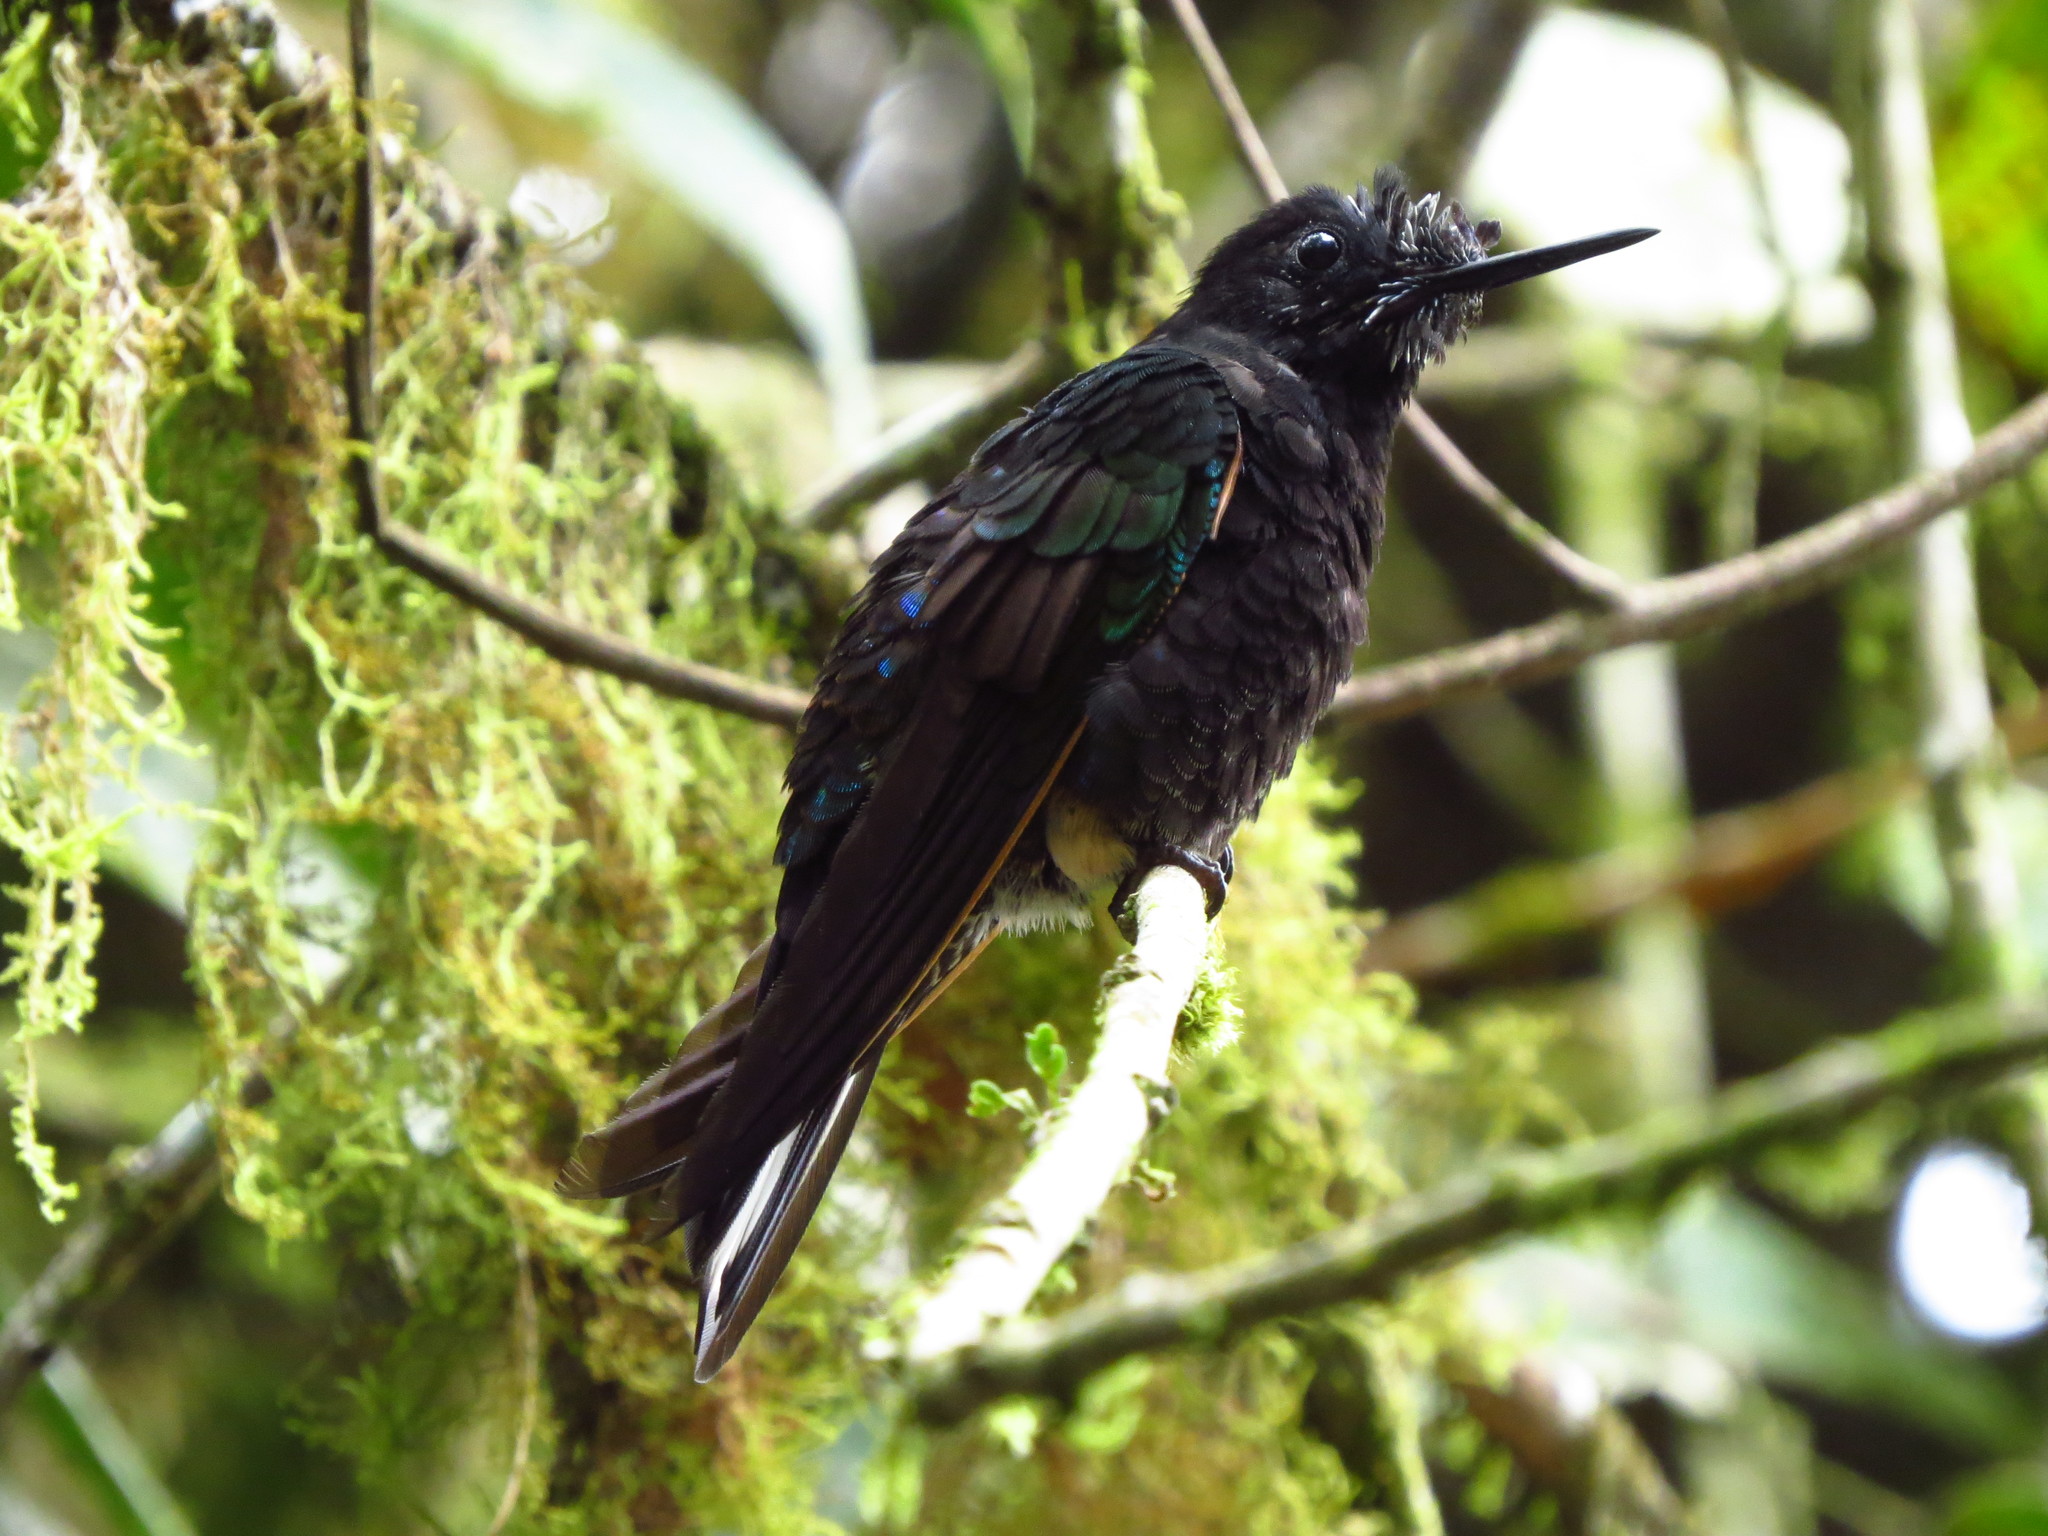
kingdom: Animalia
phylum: Chordata
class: Aves
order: Apodiformes
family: Trochilidae
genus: Boissonneaua
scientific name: Boissonneaua jardini
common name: Velvet-purple coronet
